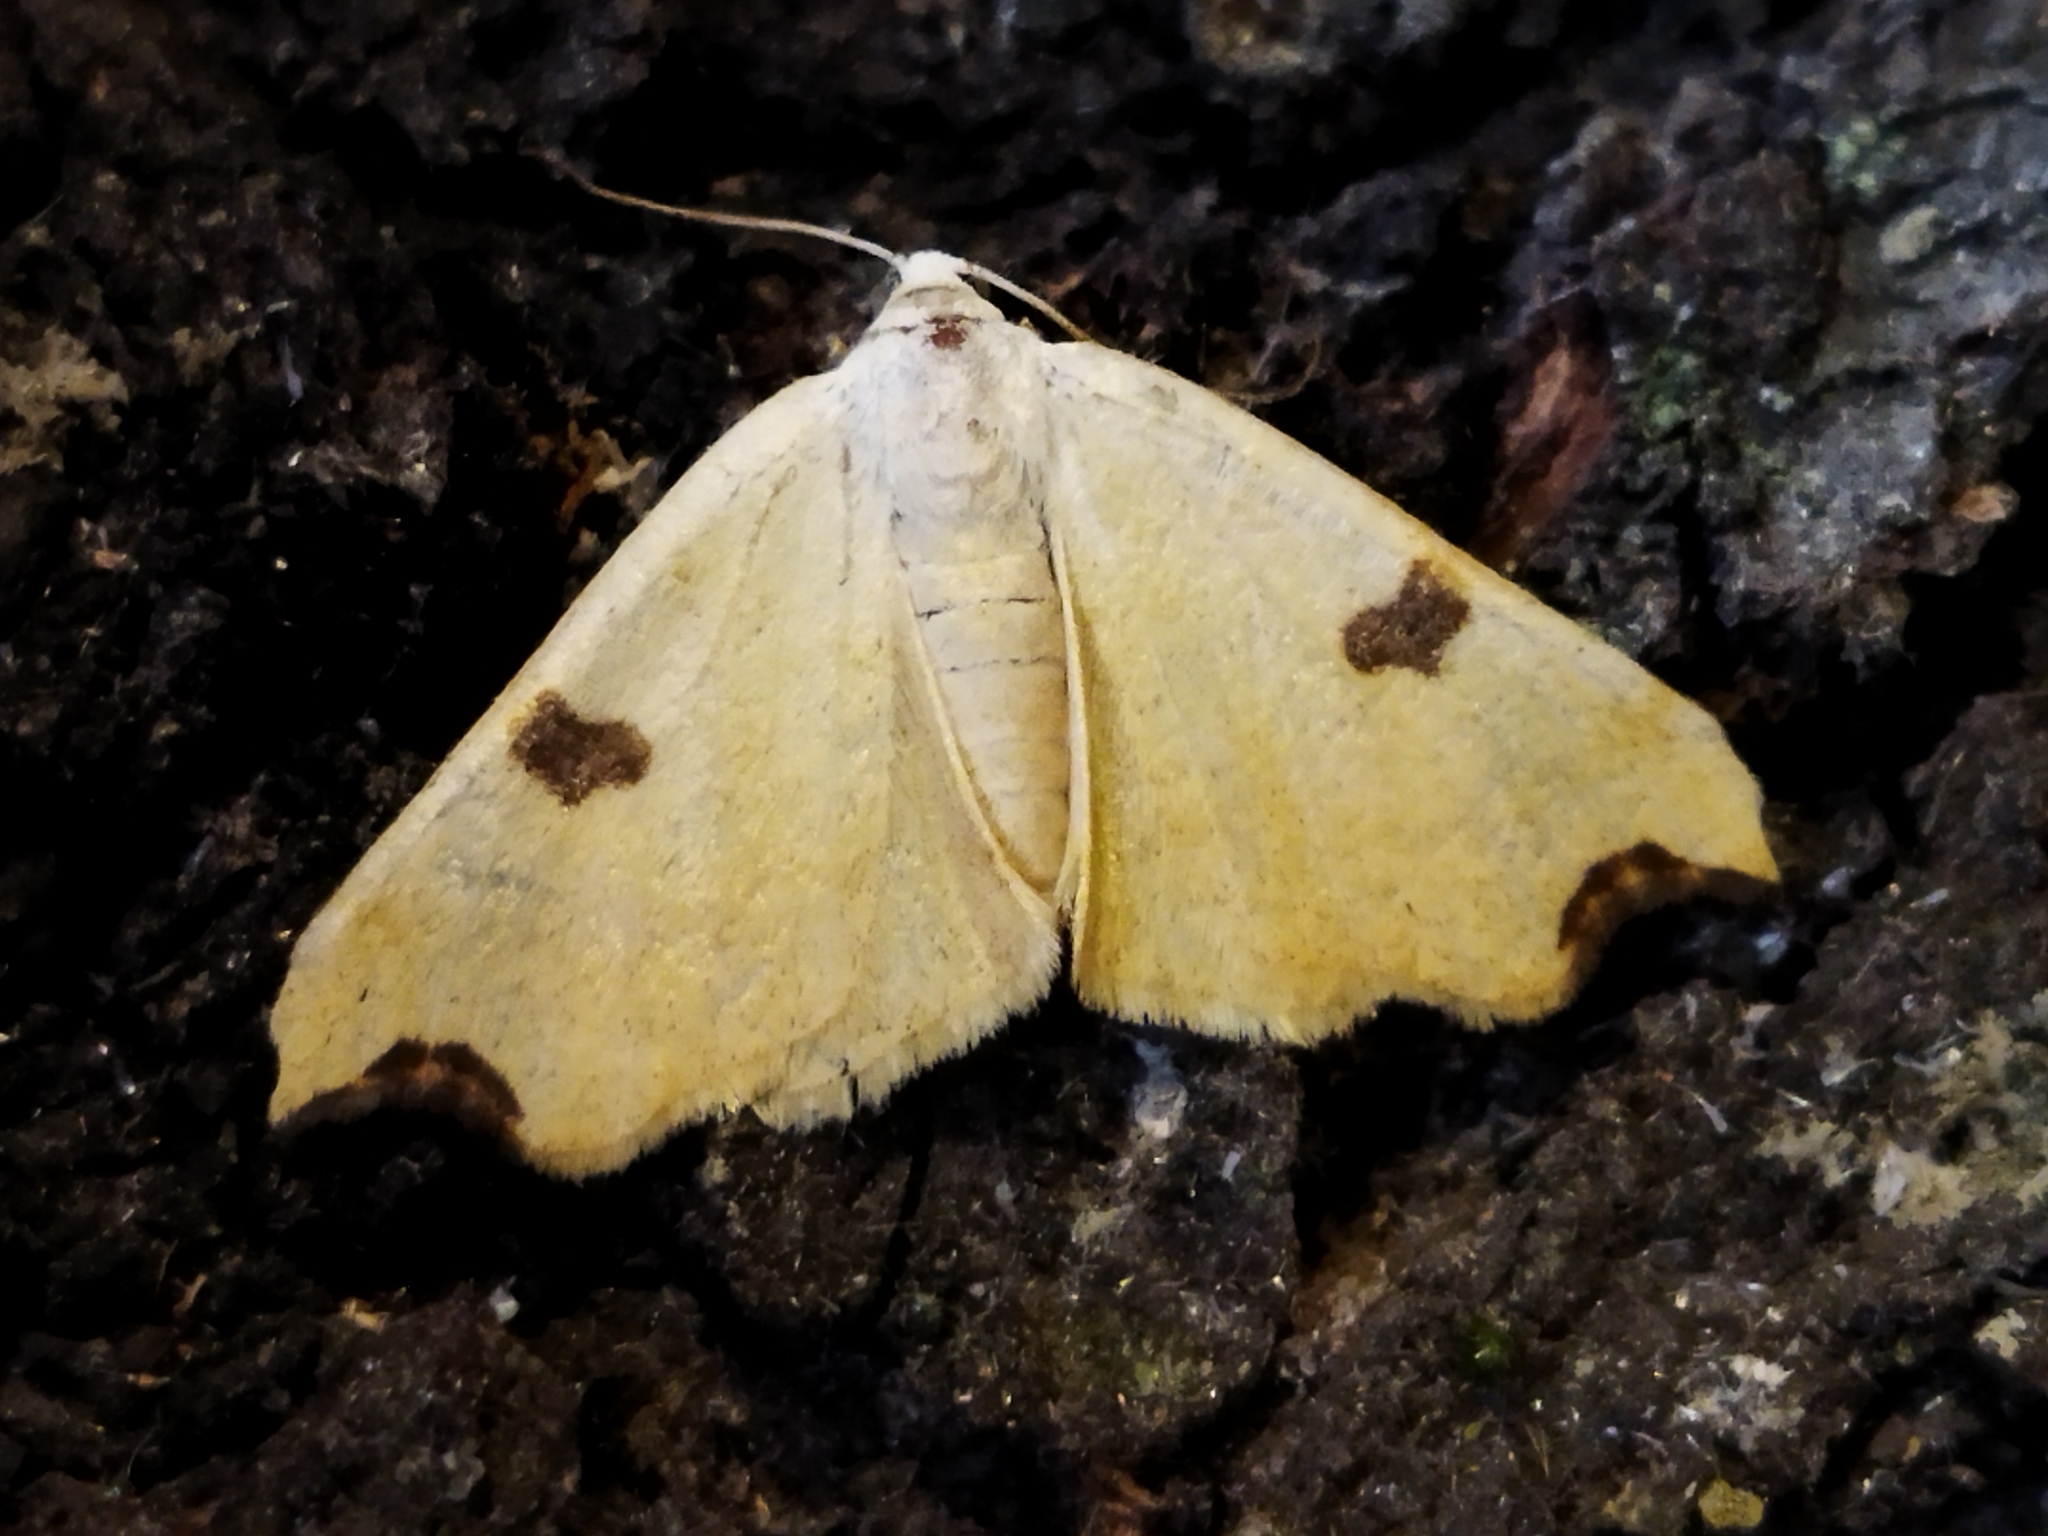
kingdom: Animalia
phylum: Arthropoda
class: Insecta
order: Lepidoptera
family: Geometridae
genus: Eilicrinia
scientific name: Eilicrinia cordiaria
